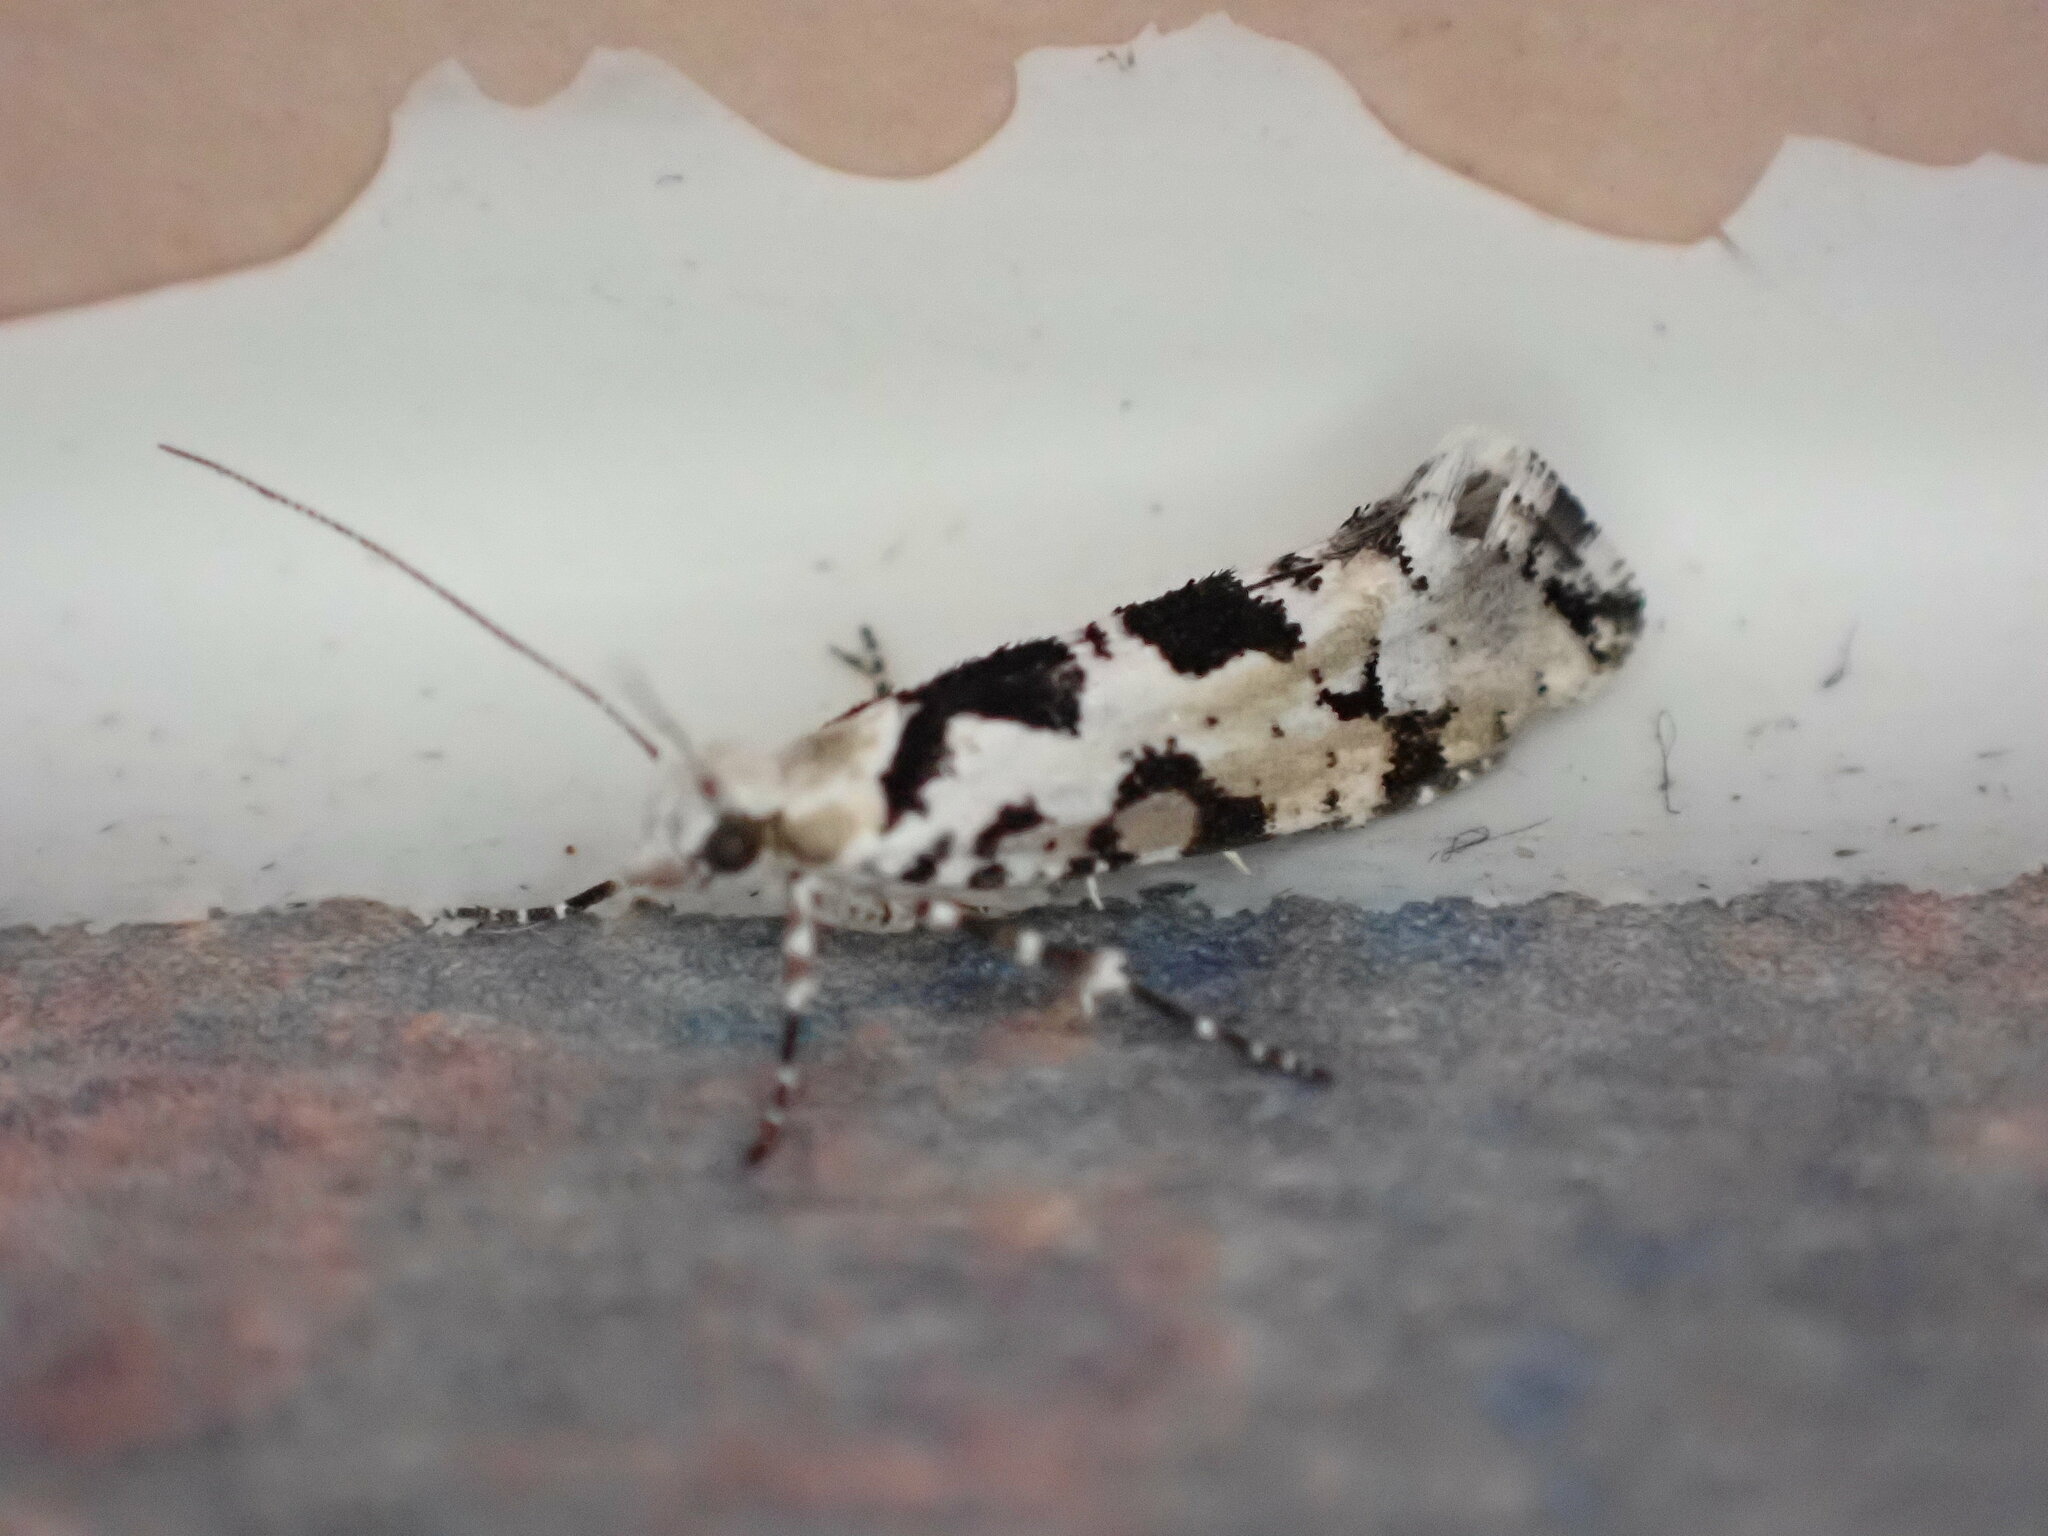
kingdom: Animalia
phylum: Arthropoda
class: Insecta
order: Lepidoptera
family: Plutellidae
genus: Ypsolophus
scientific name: Ypsolophus sequella
